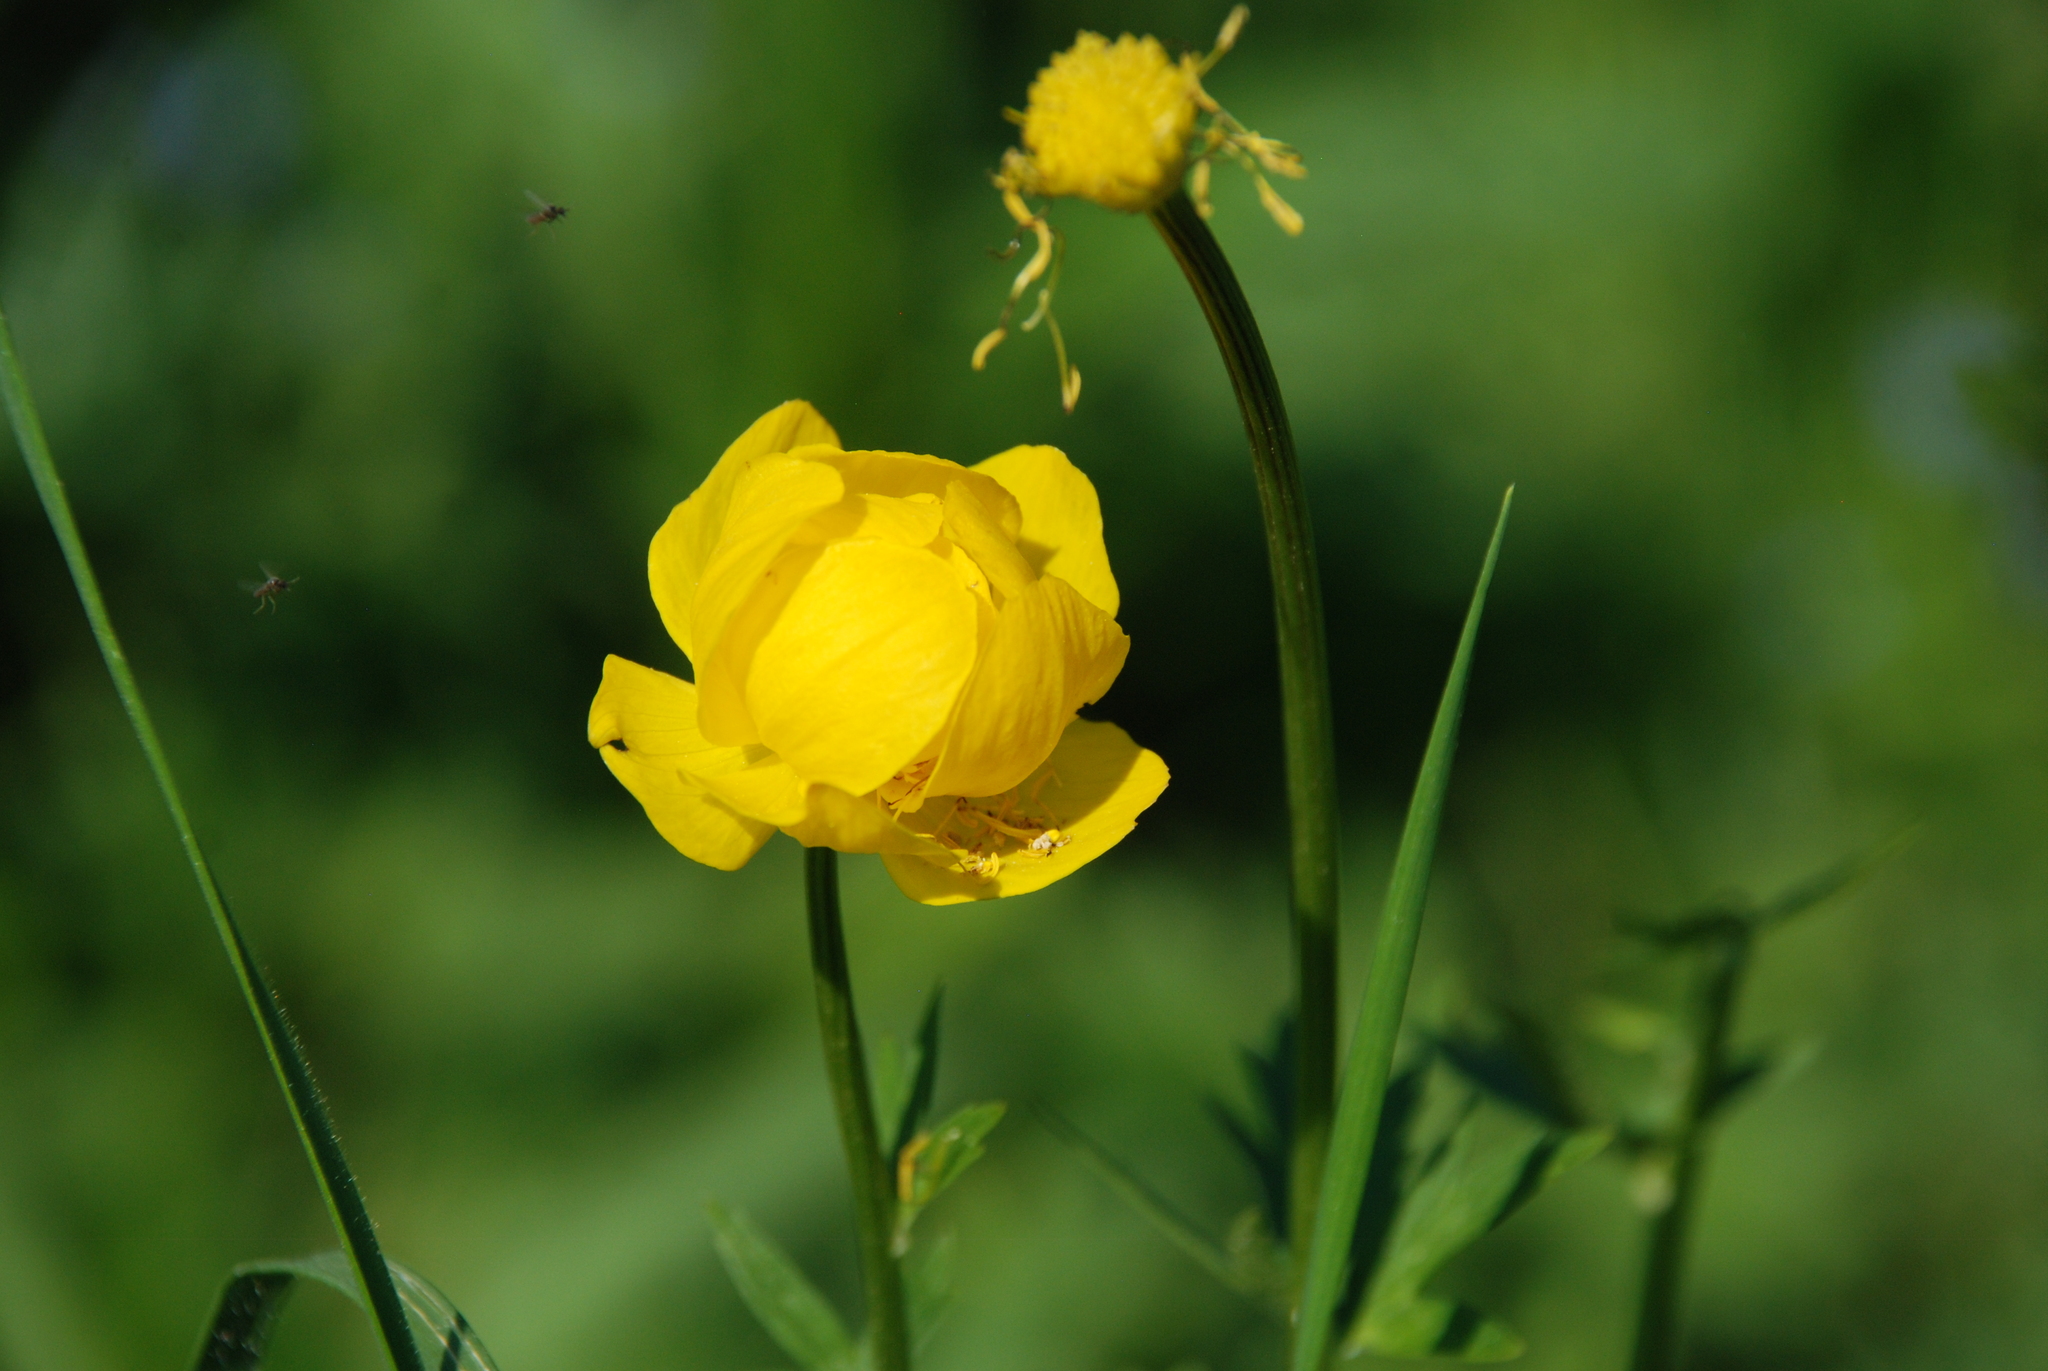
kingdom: Plantae
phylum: Tracheophyta
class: Magnoliopsida
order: Ranunculales
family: Ranunculaceae
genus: Trollius
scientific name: Trollius europaeus
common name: European globeflower
